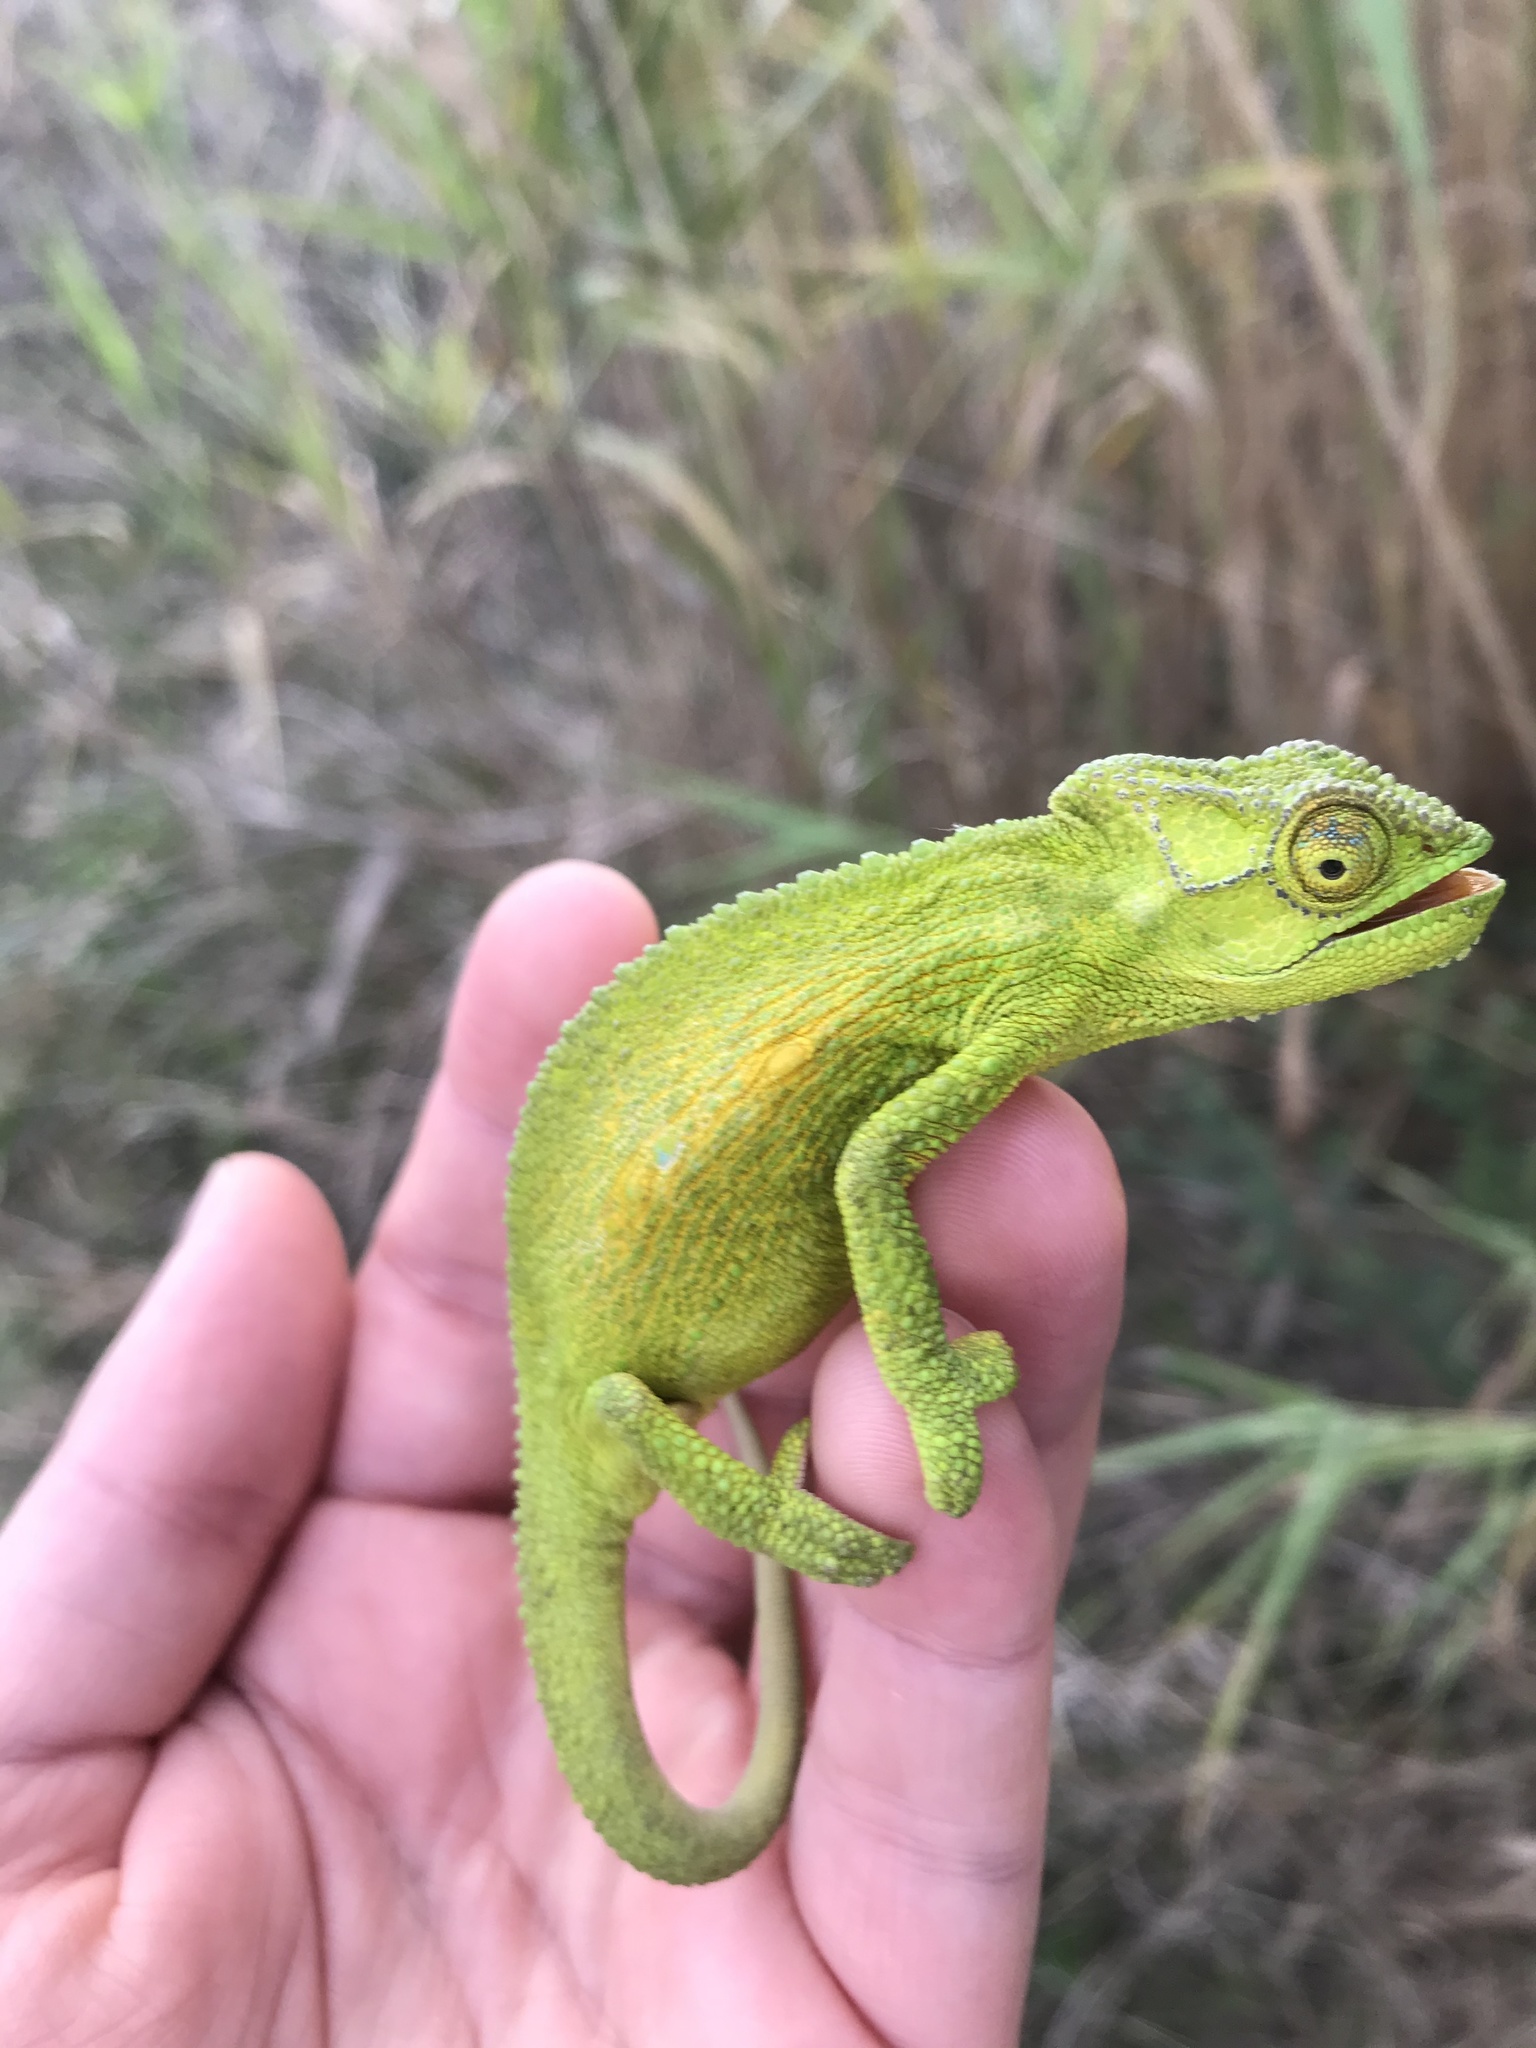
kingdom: Animalia
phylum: Chordata
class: Squamata
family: Chamaeleonidae
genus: Bradypodion
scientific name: Bradypodion pumilum
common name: Cape dwarf chameleon
